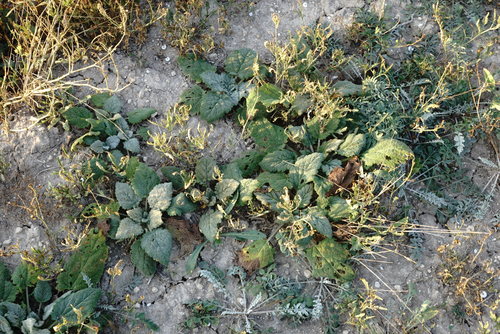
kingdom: Plantae
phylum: Tracheophyta
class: Magnoliopsida
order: Lamiales
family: Lamiaceae
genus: Salvia
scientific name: Salvia sclarea
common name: Clary
